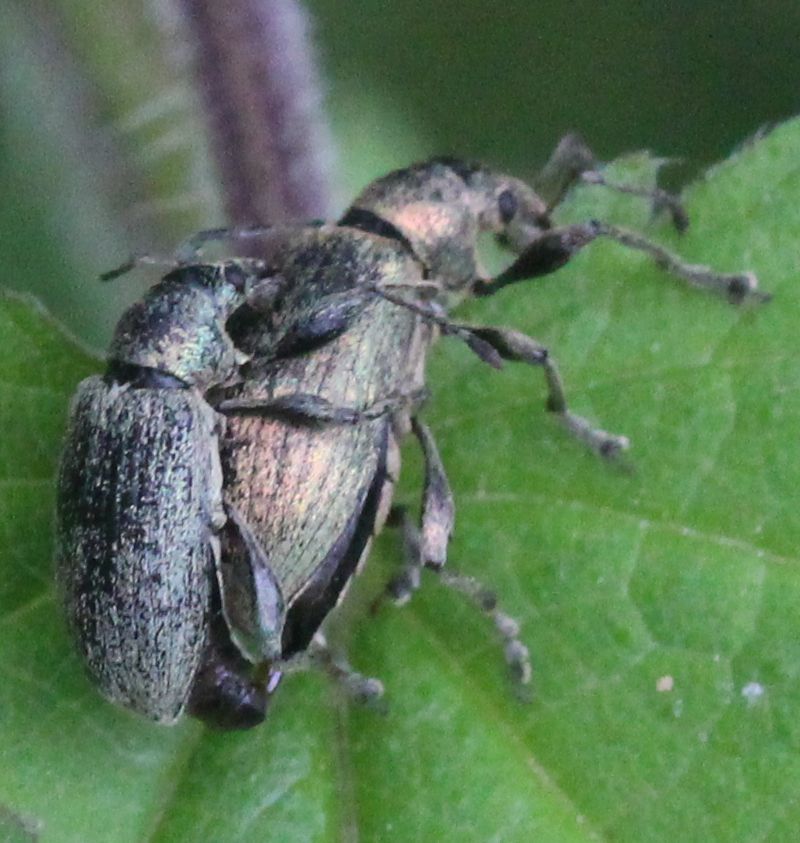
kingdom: Animalia
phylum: Arthropoda
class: Insecta
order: Coleoptera
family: Curculionidae
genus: Phyllobius
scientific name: Phyllobius pomaceus
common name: Green nettle weevil
